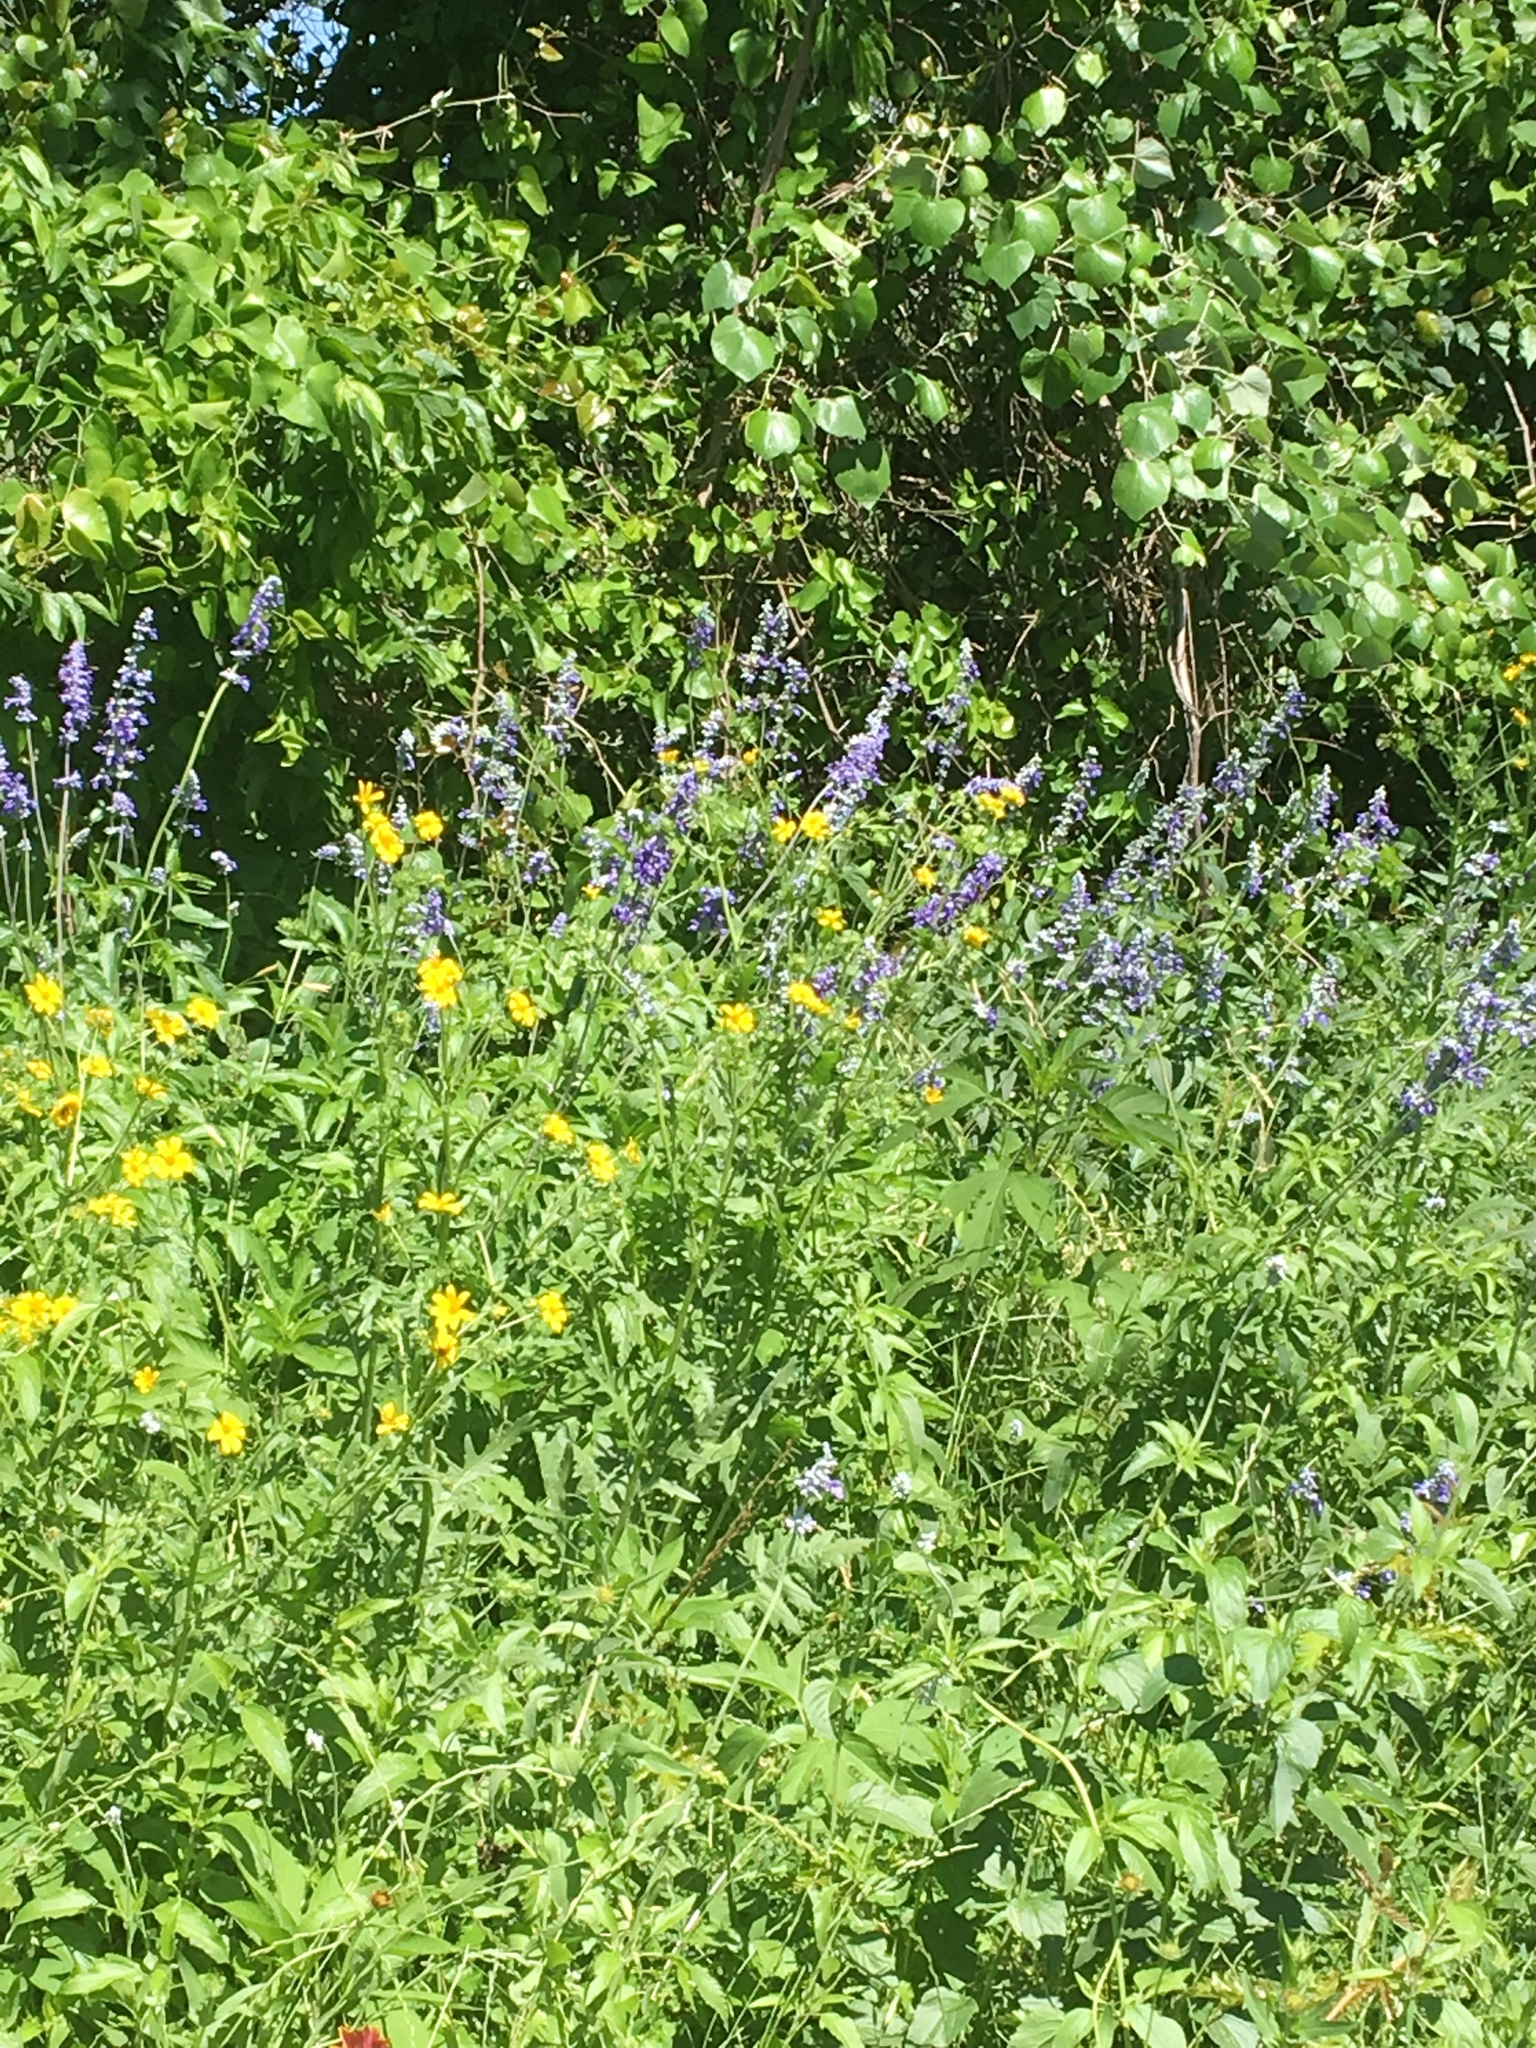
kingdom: Plantae
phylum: Tracheophyta
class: Magnoliopsida
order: Lamiales
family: Lamiaceae
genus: Salvia
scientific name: Salvia farinacea
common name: Mealy sage
